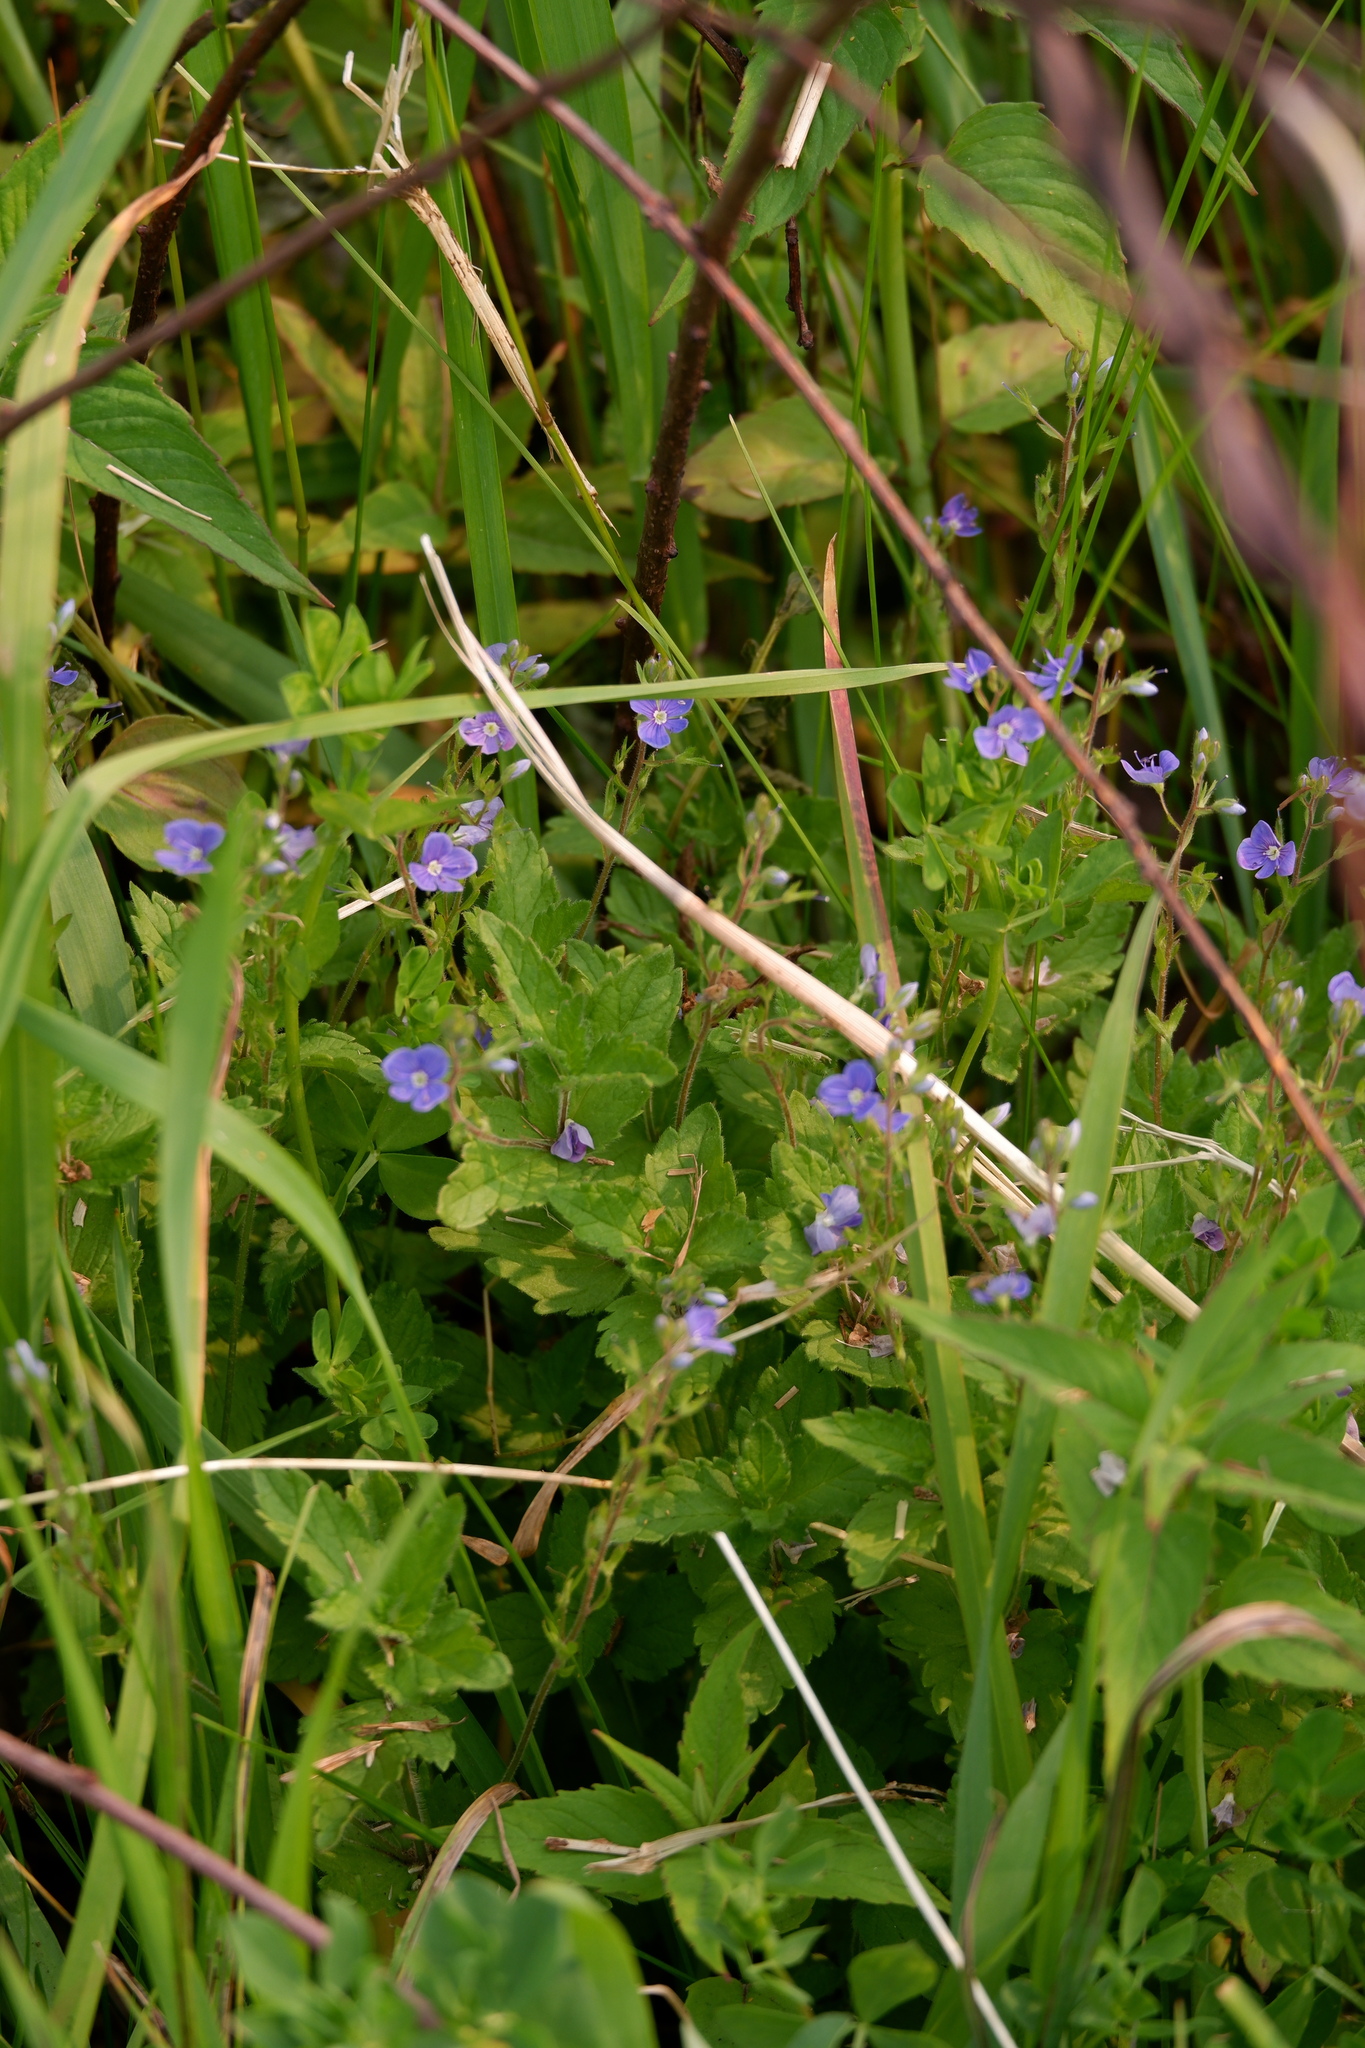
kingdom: Plantae
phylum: Tracheophyta
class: Magnoliopsida
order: Lamiales
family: Plantaginaceae
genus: Veronica
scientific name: Veronica chamaedrys
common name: Germander speedwell
